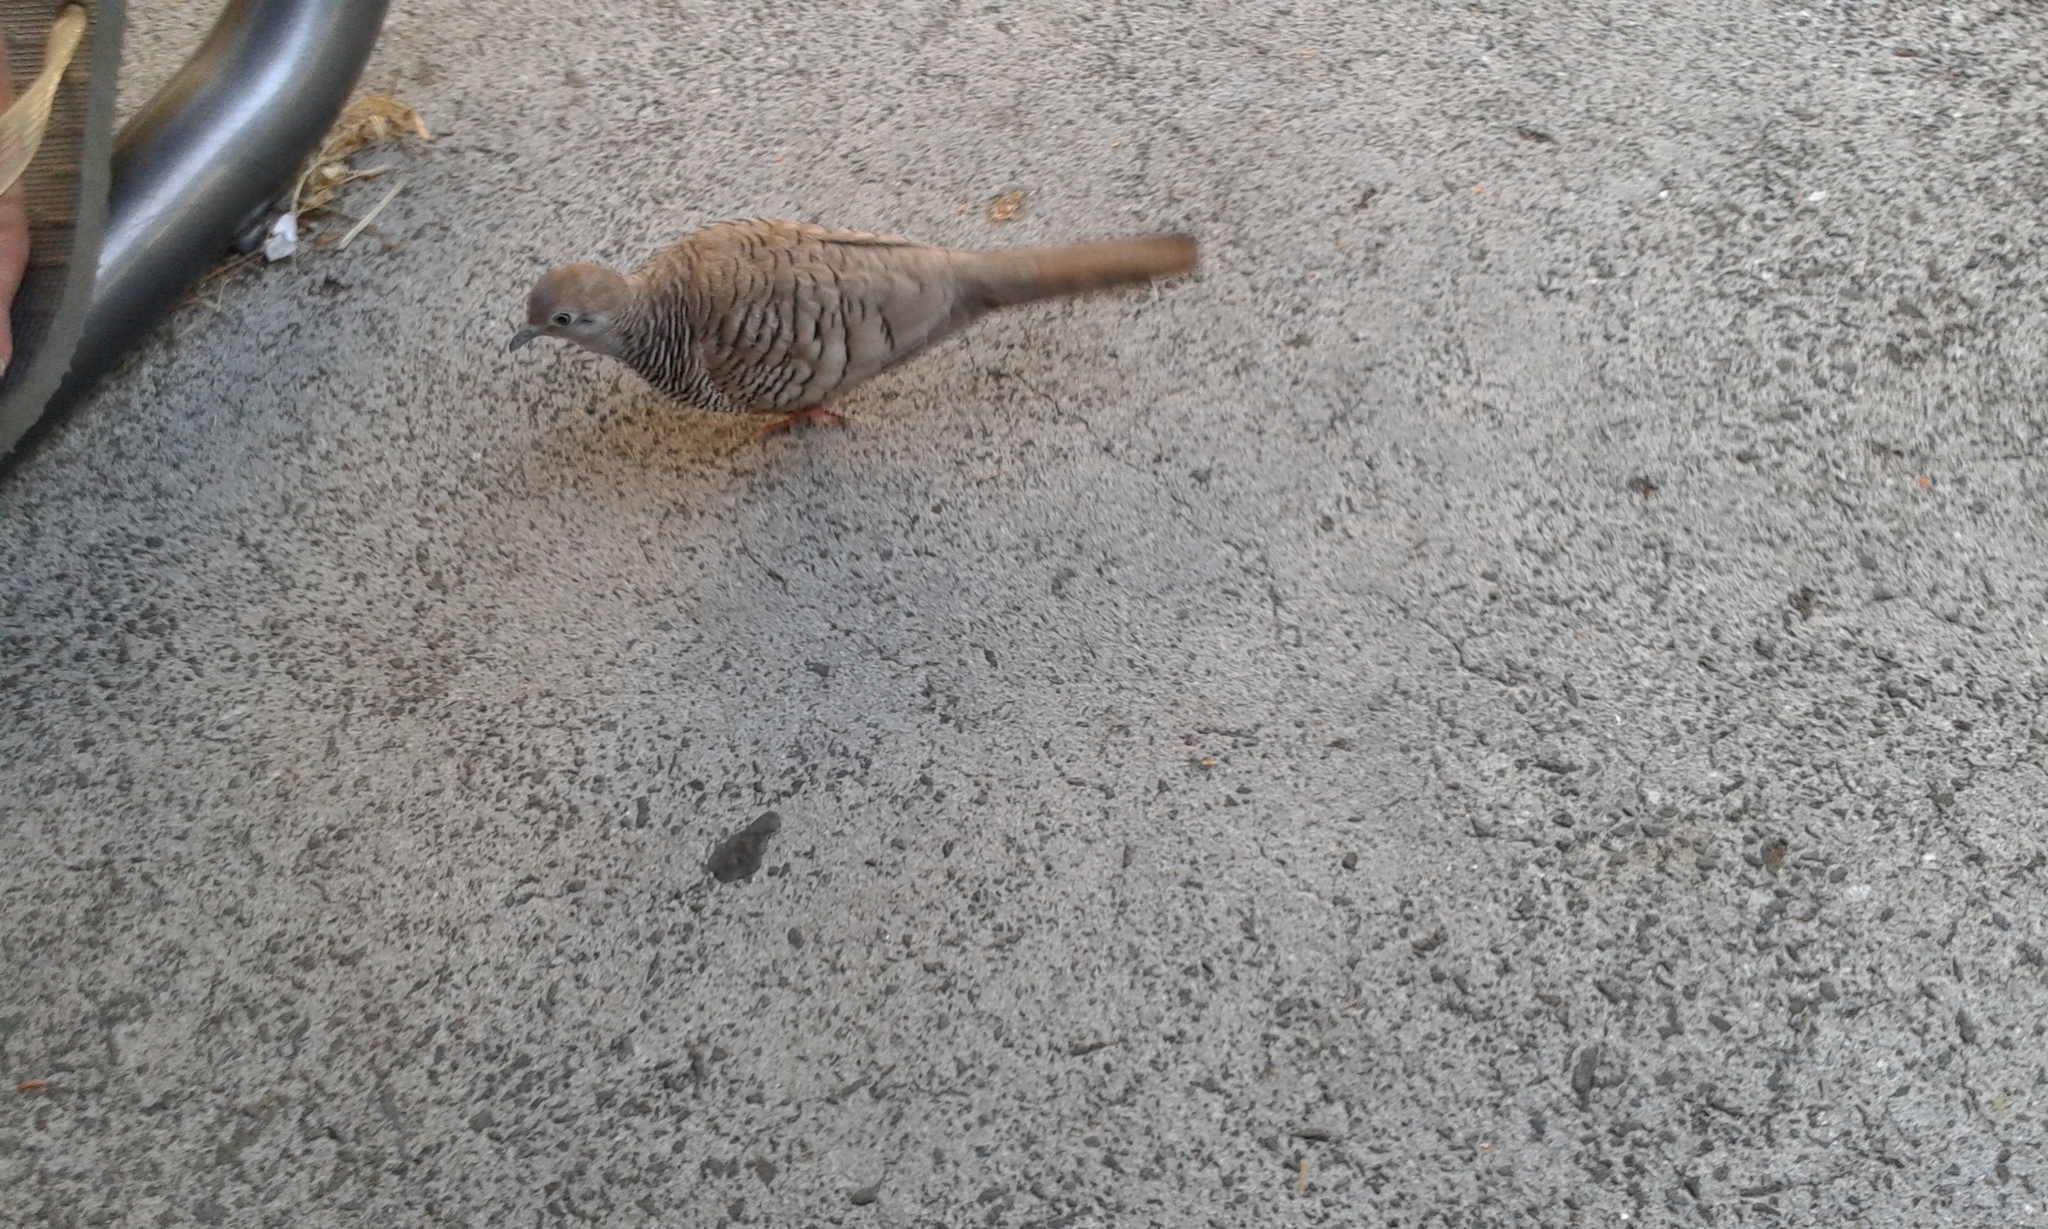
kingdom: Animalia
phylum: Chordata
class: Aves
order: Columbiformes
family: Columbidae
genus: Geopelia
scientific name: Geopelia striata
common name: Zebra dove
